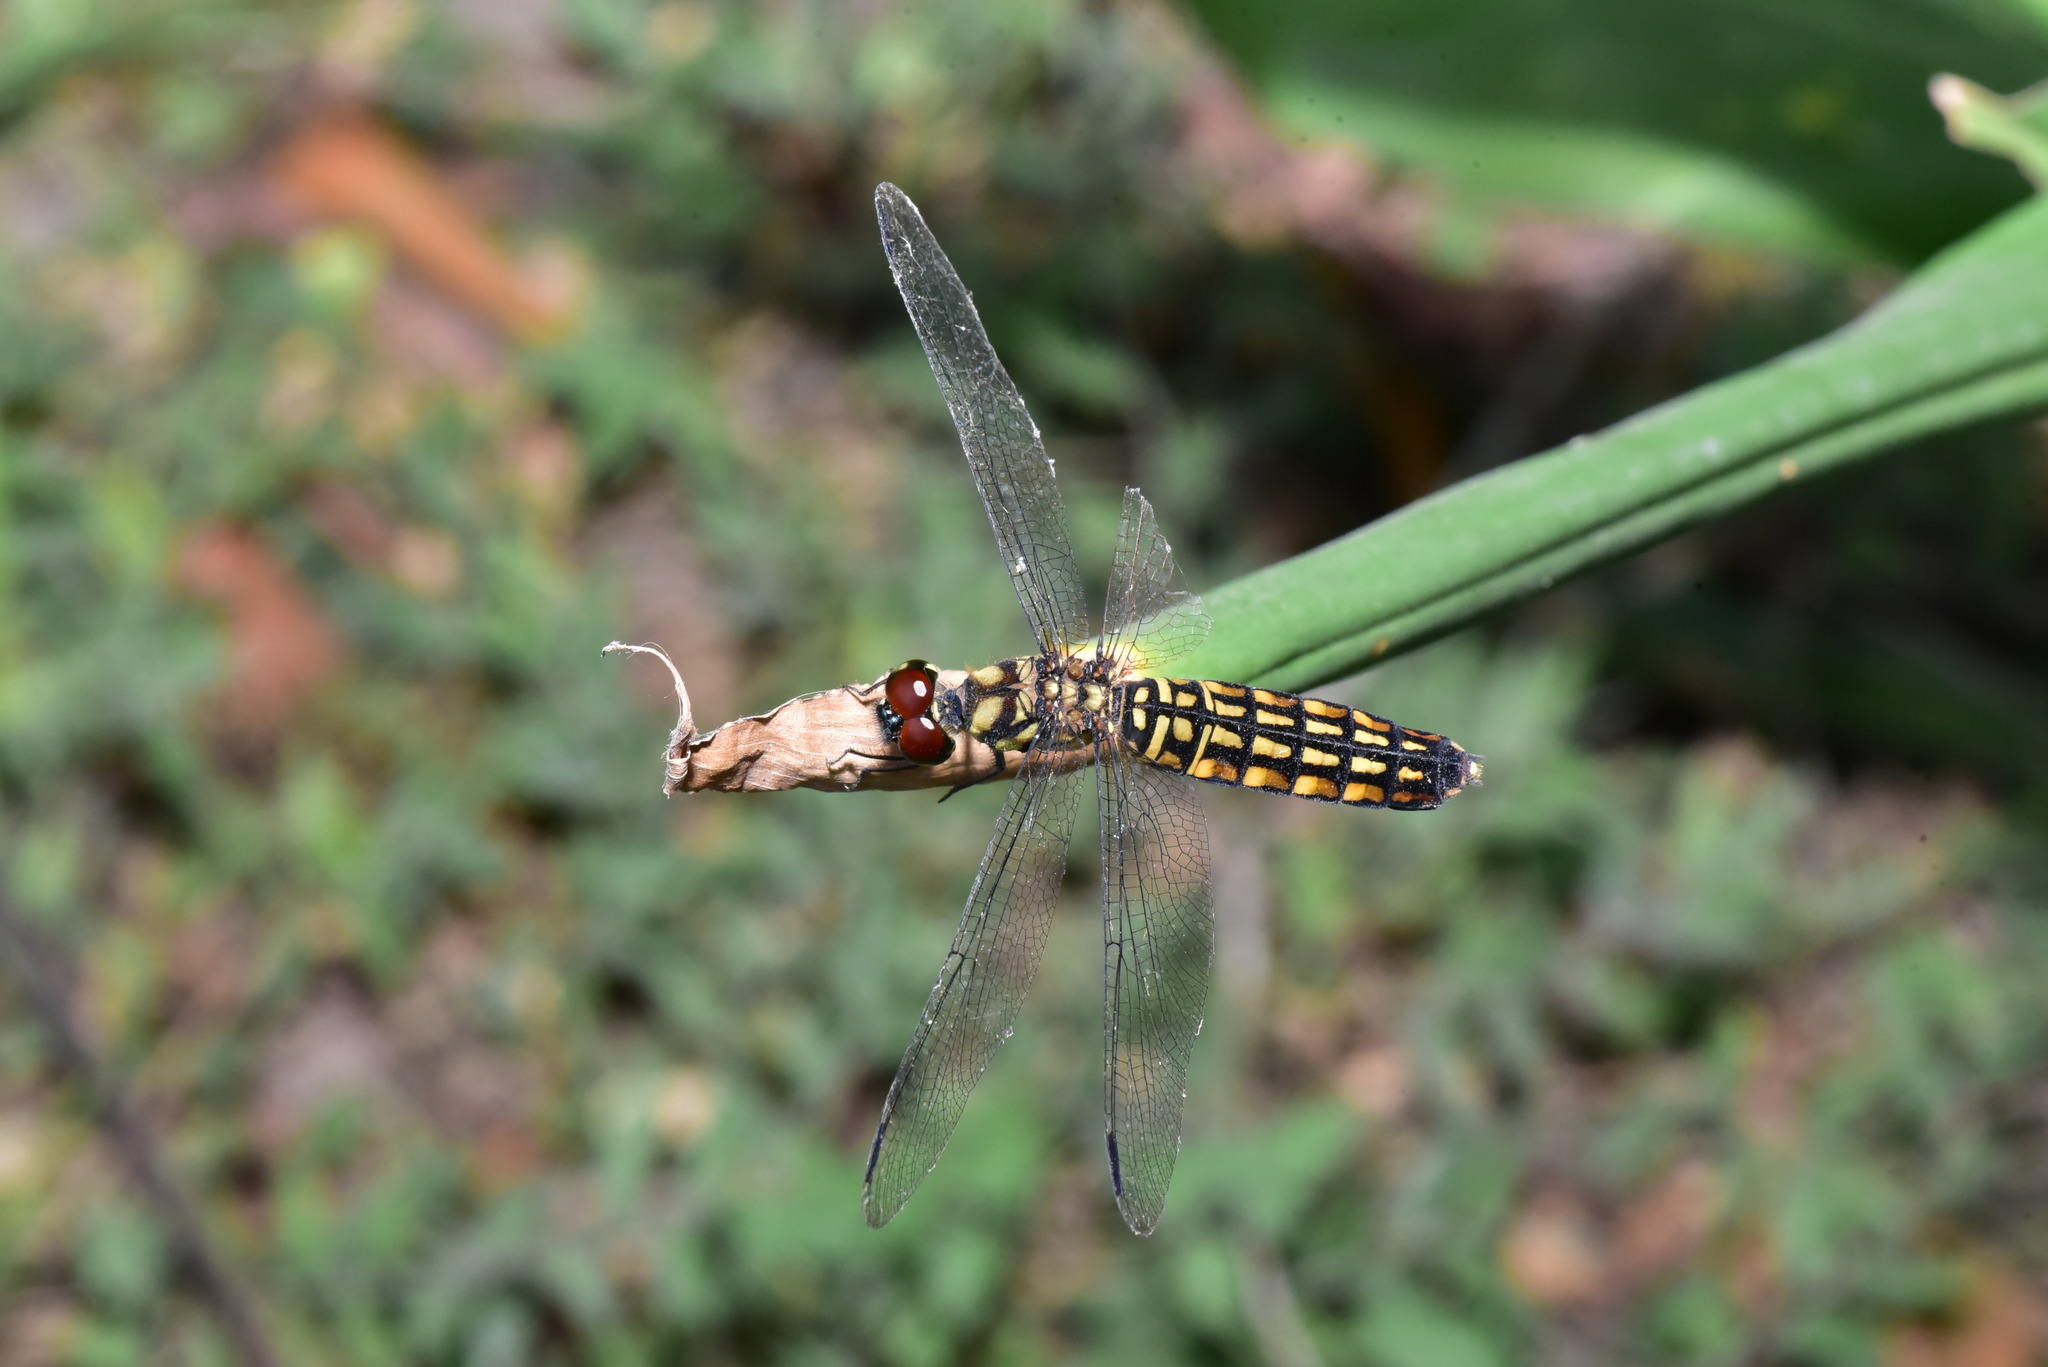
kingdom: Animalia
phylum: Arthropoda
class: Insecta
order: Odonata
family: Libellulidae
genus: Lyriothemis
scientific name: Lyriothemis elegantissima
